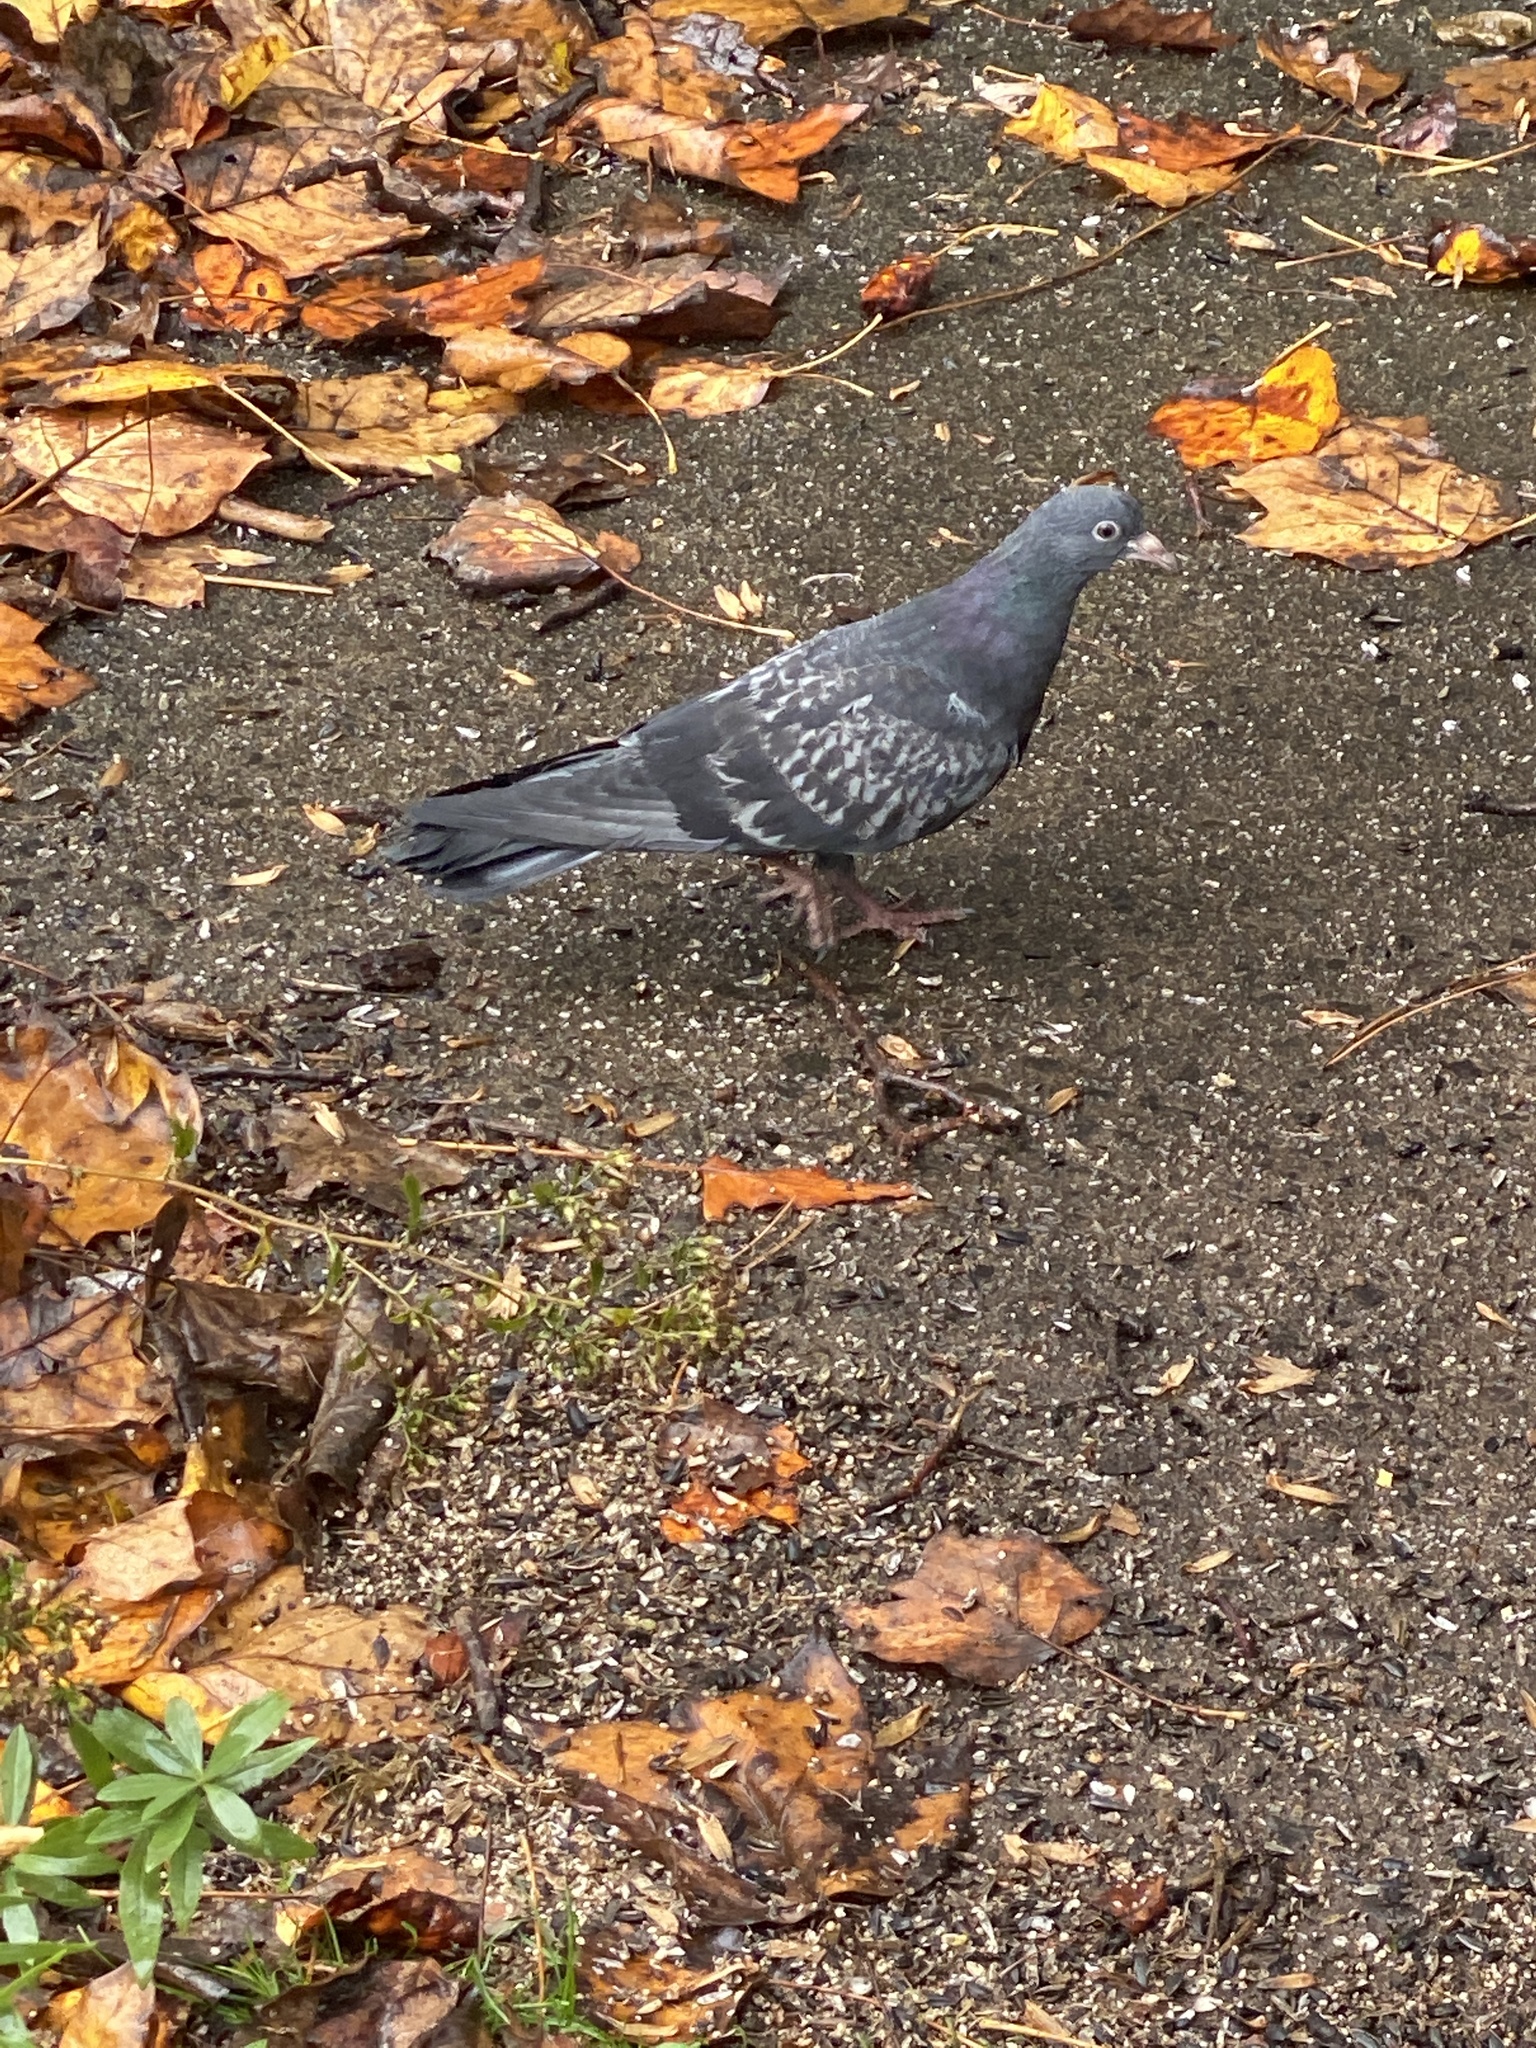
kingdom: Animalia
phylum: Chordata
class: Aves
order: Columbiformes
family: Columbidae
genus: Columba
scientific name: Columba livia
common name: Rock pigeon
